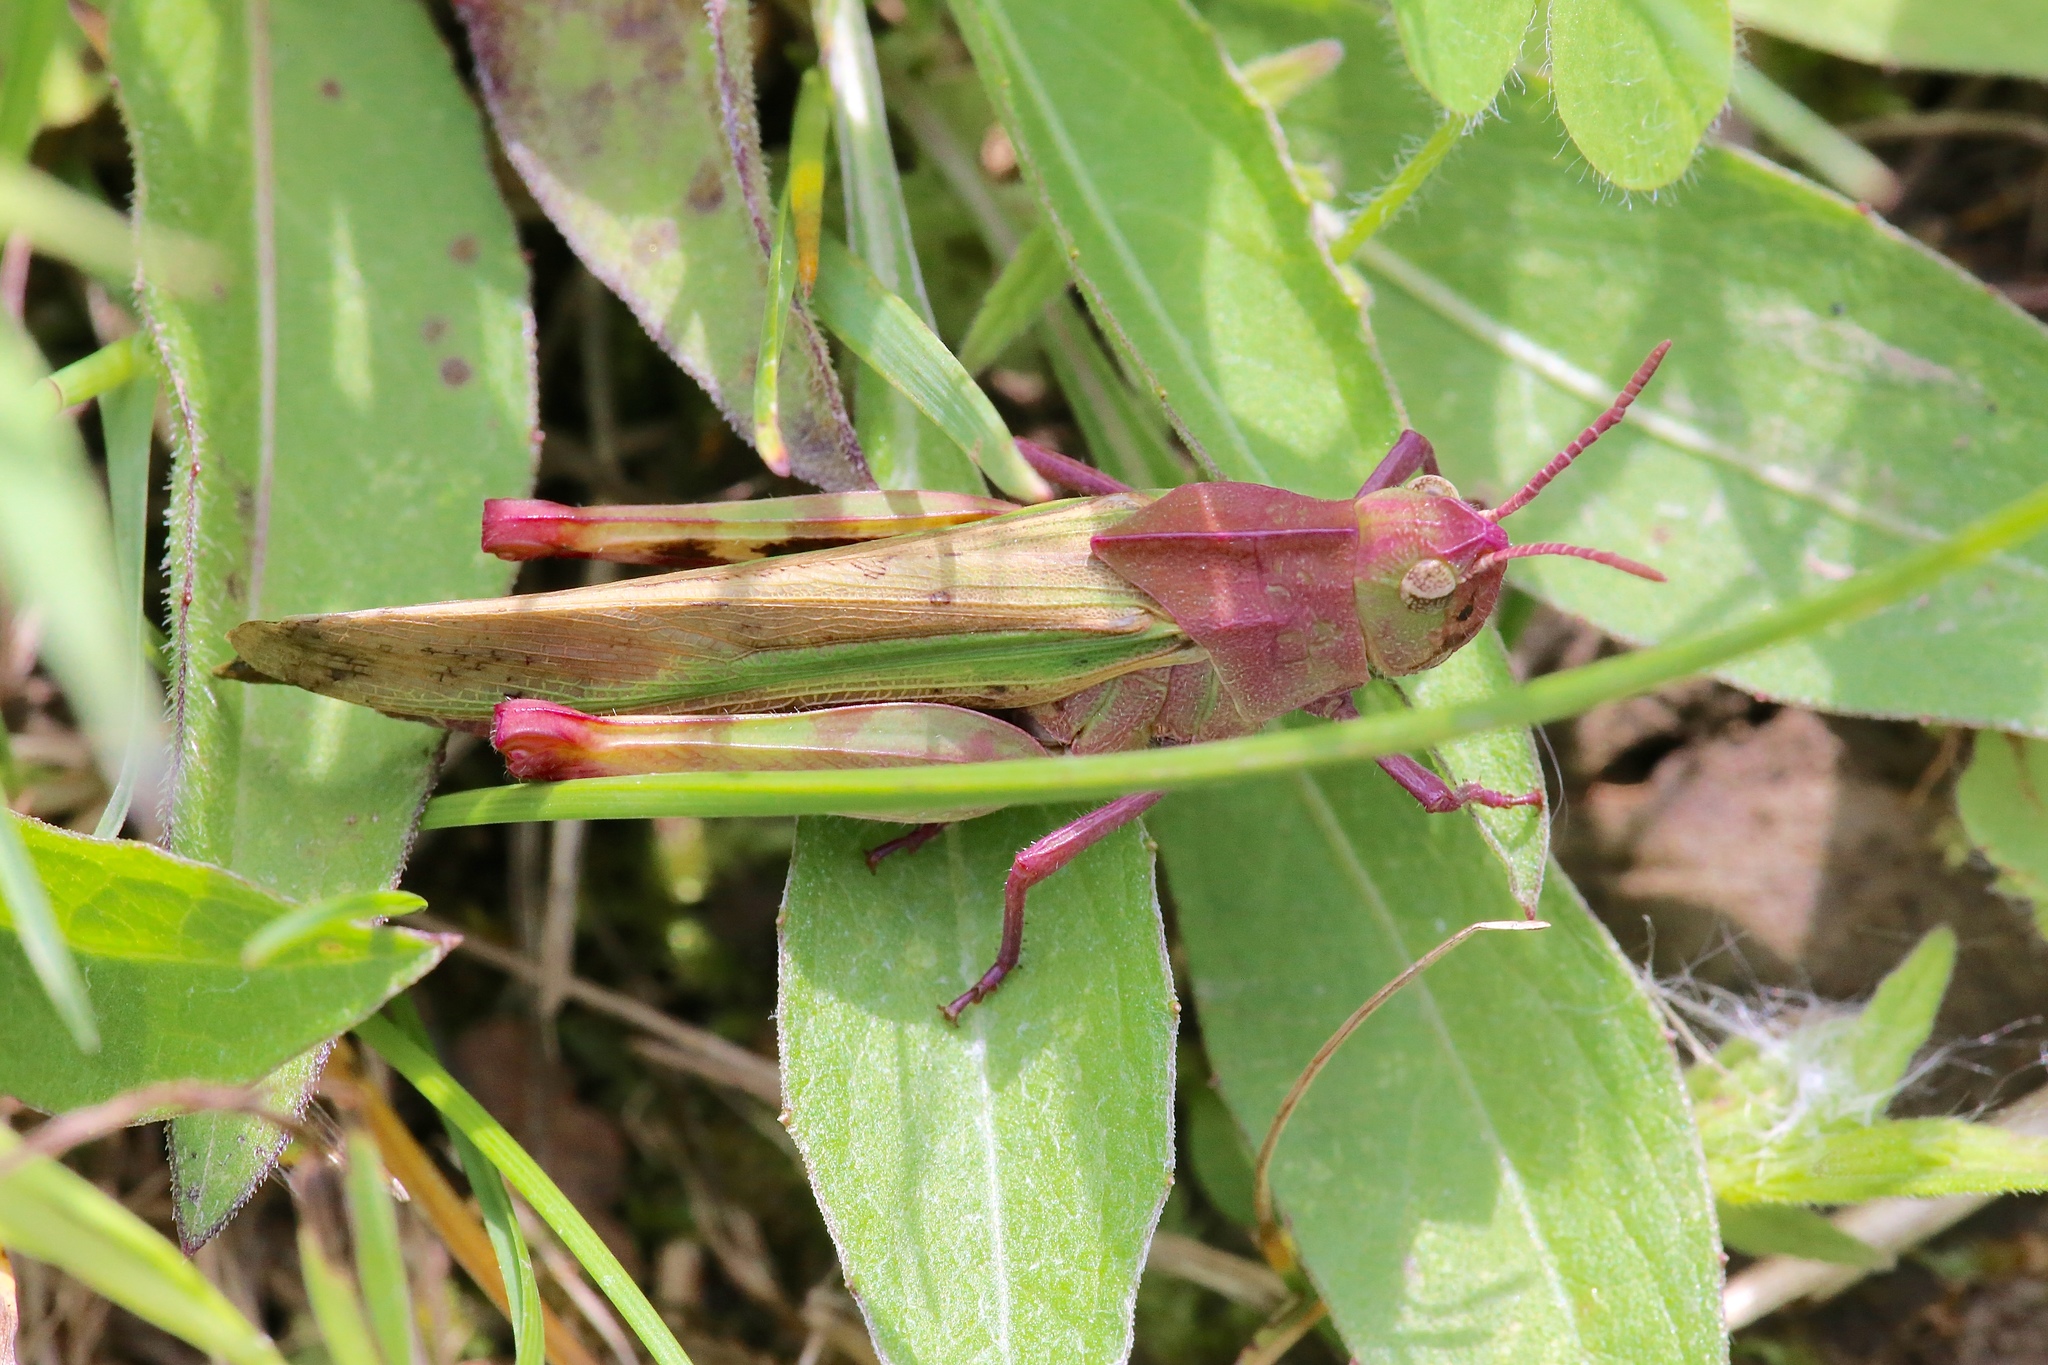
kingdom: Animalia
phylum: Arthropoda
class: Insecta
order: Orthoptera
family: Acrididae
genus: Chortophaga
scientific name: Chortophaga viridifasciata
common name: Green-striped grasshopper
